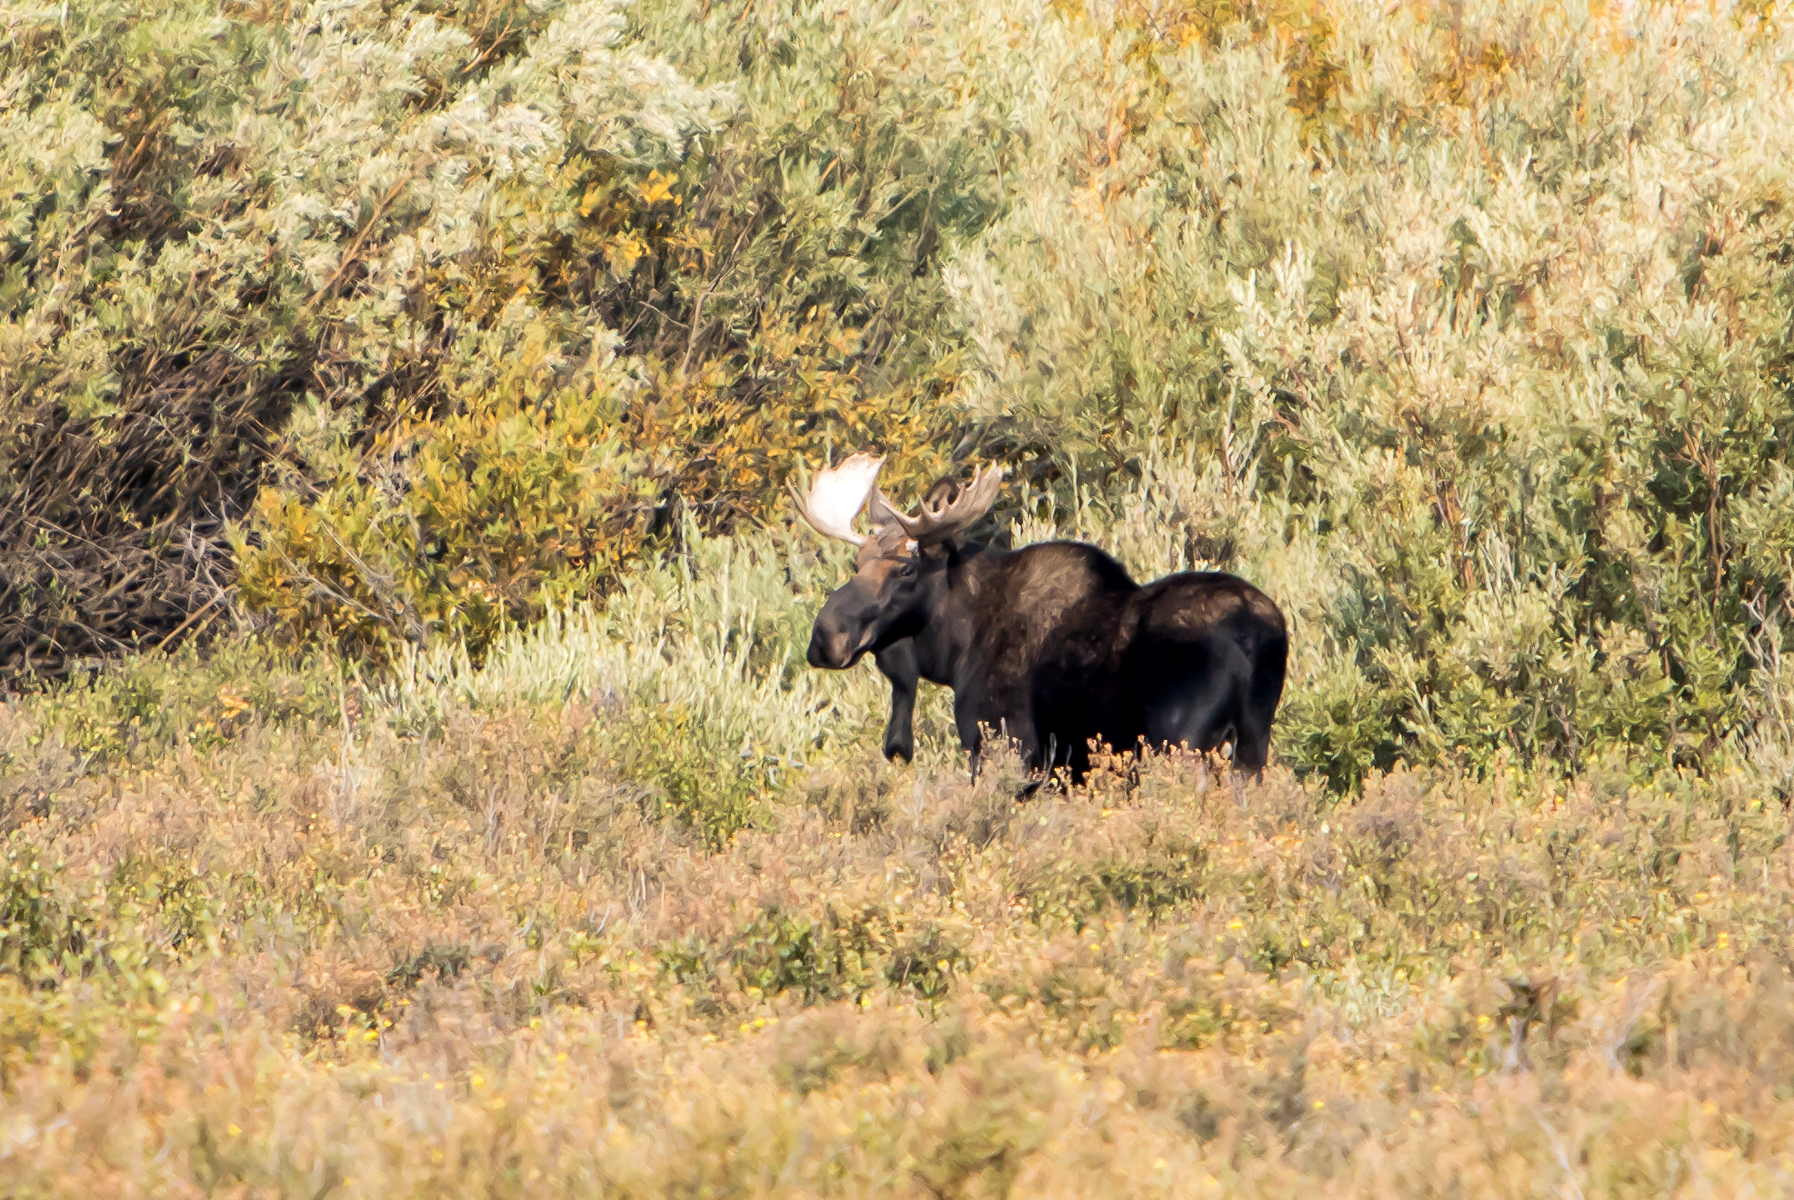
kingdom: Animalia
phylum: Chordata
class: Mammalia
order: Artiodactyla
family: Cervidae
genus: Alces
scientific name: Alces alces
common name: Moose
